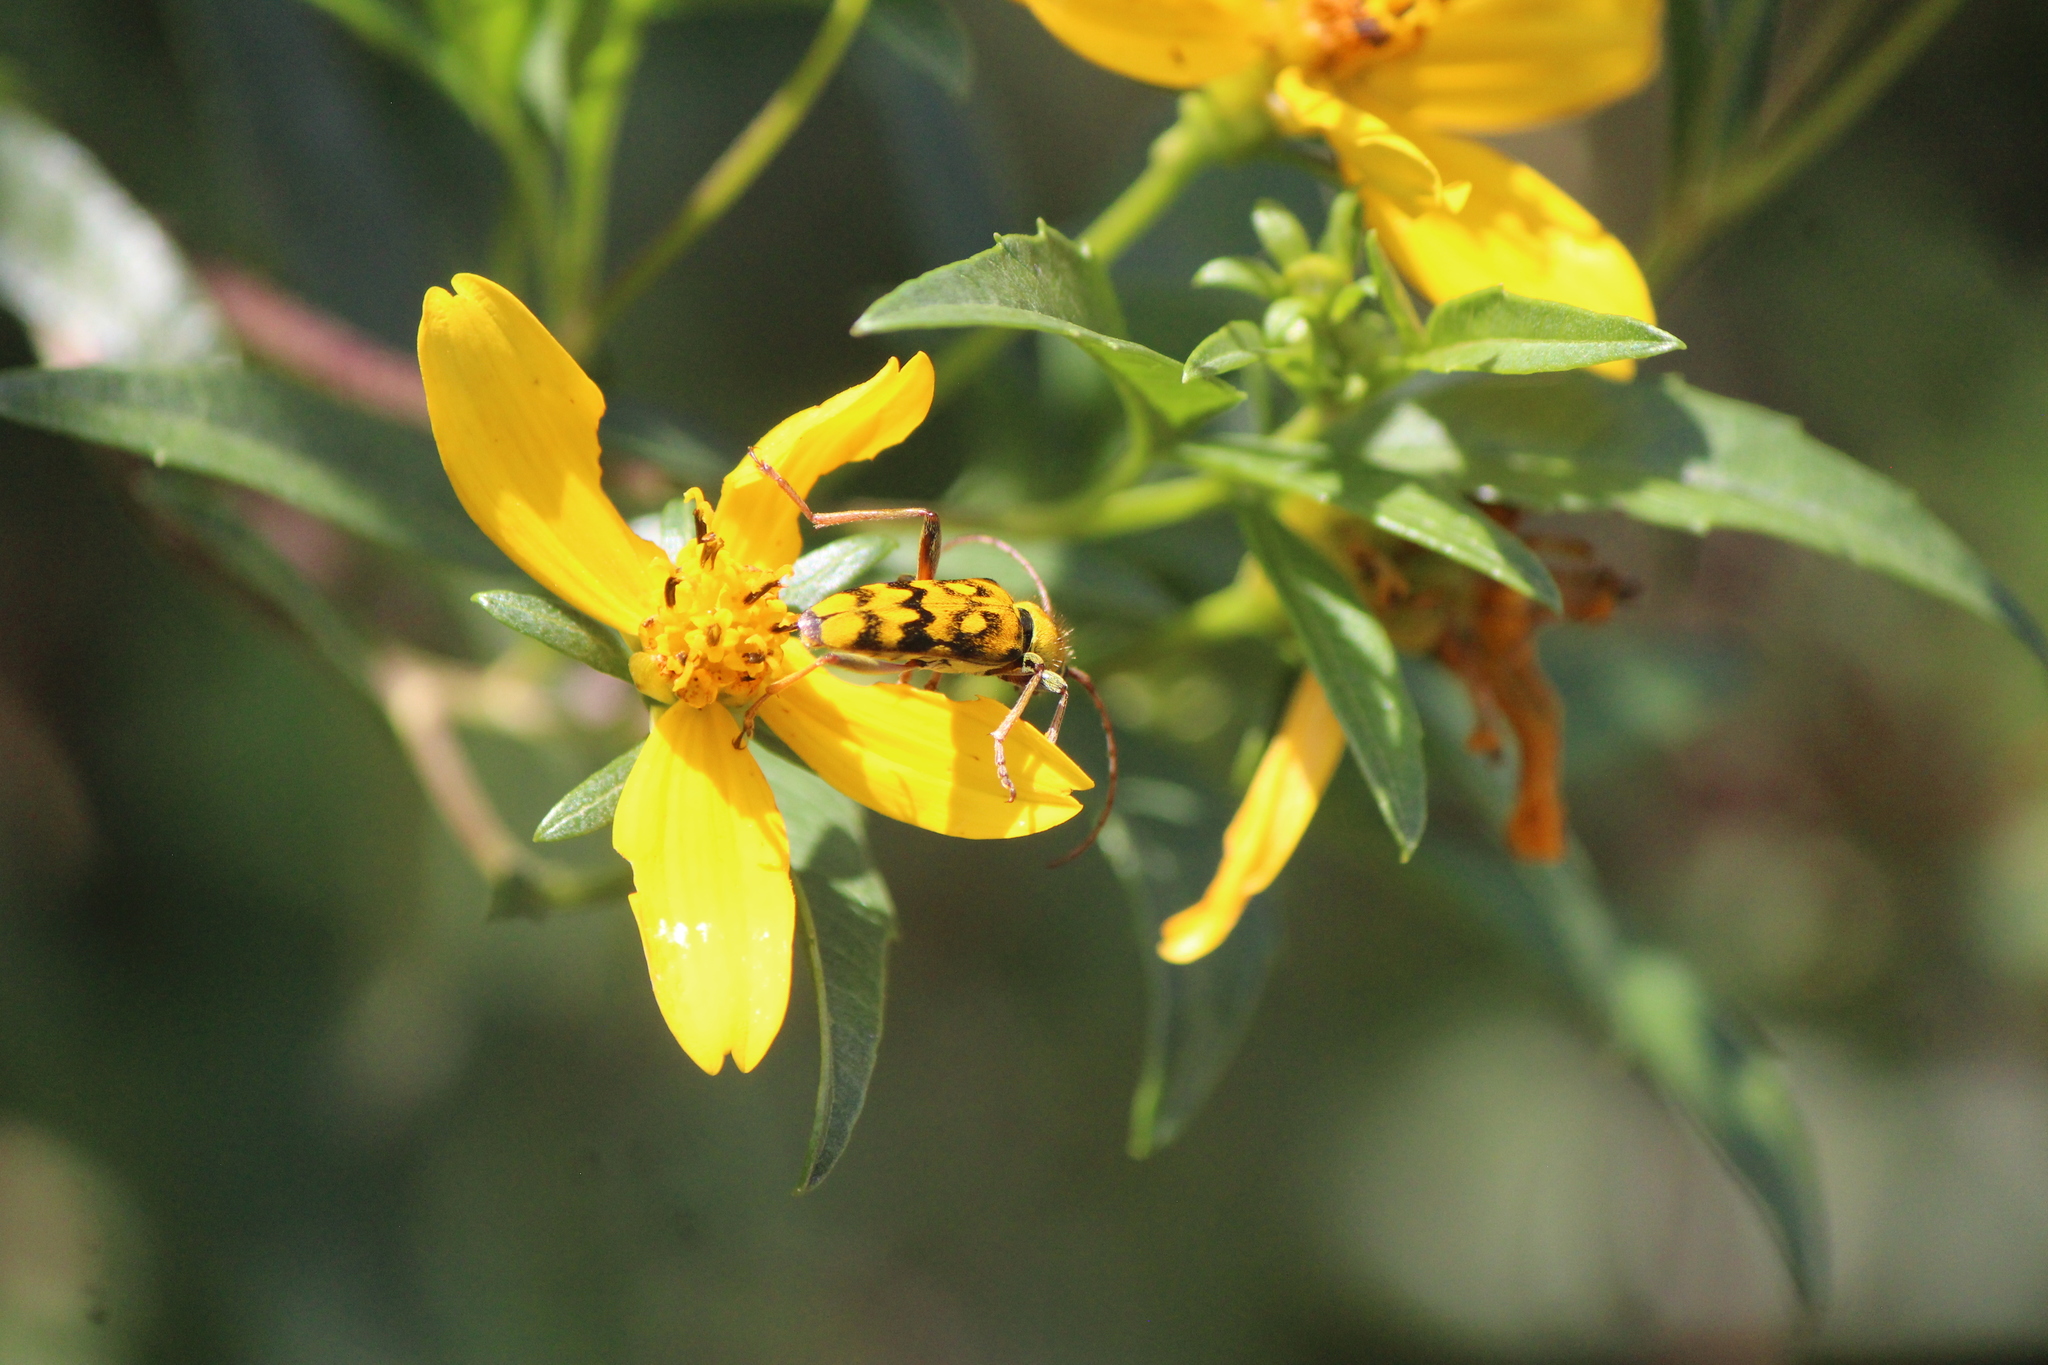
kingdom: Animalia
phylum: Arthropoda
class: Insecta
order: Coleoptera
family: Cerambycidae
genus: Ochraethes
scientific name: Ochraethes sommeri
